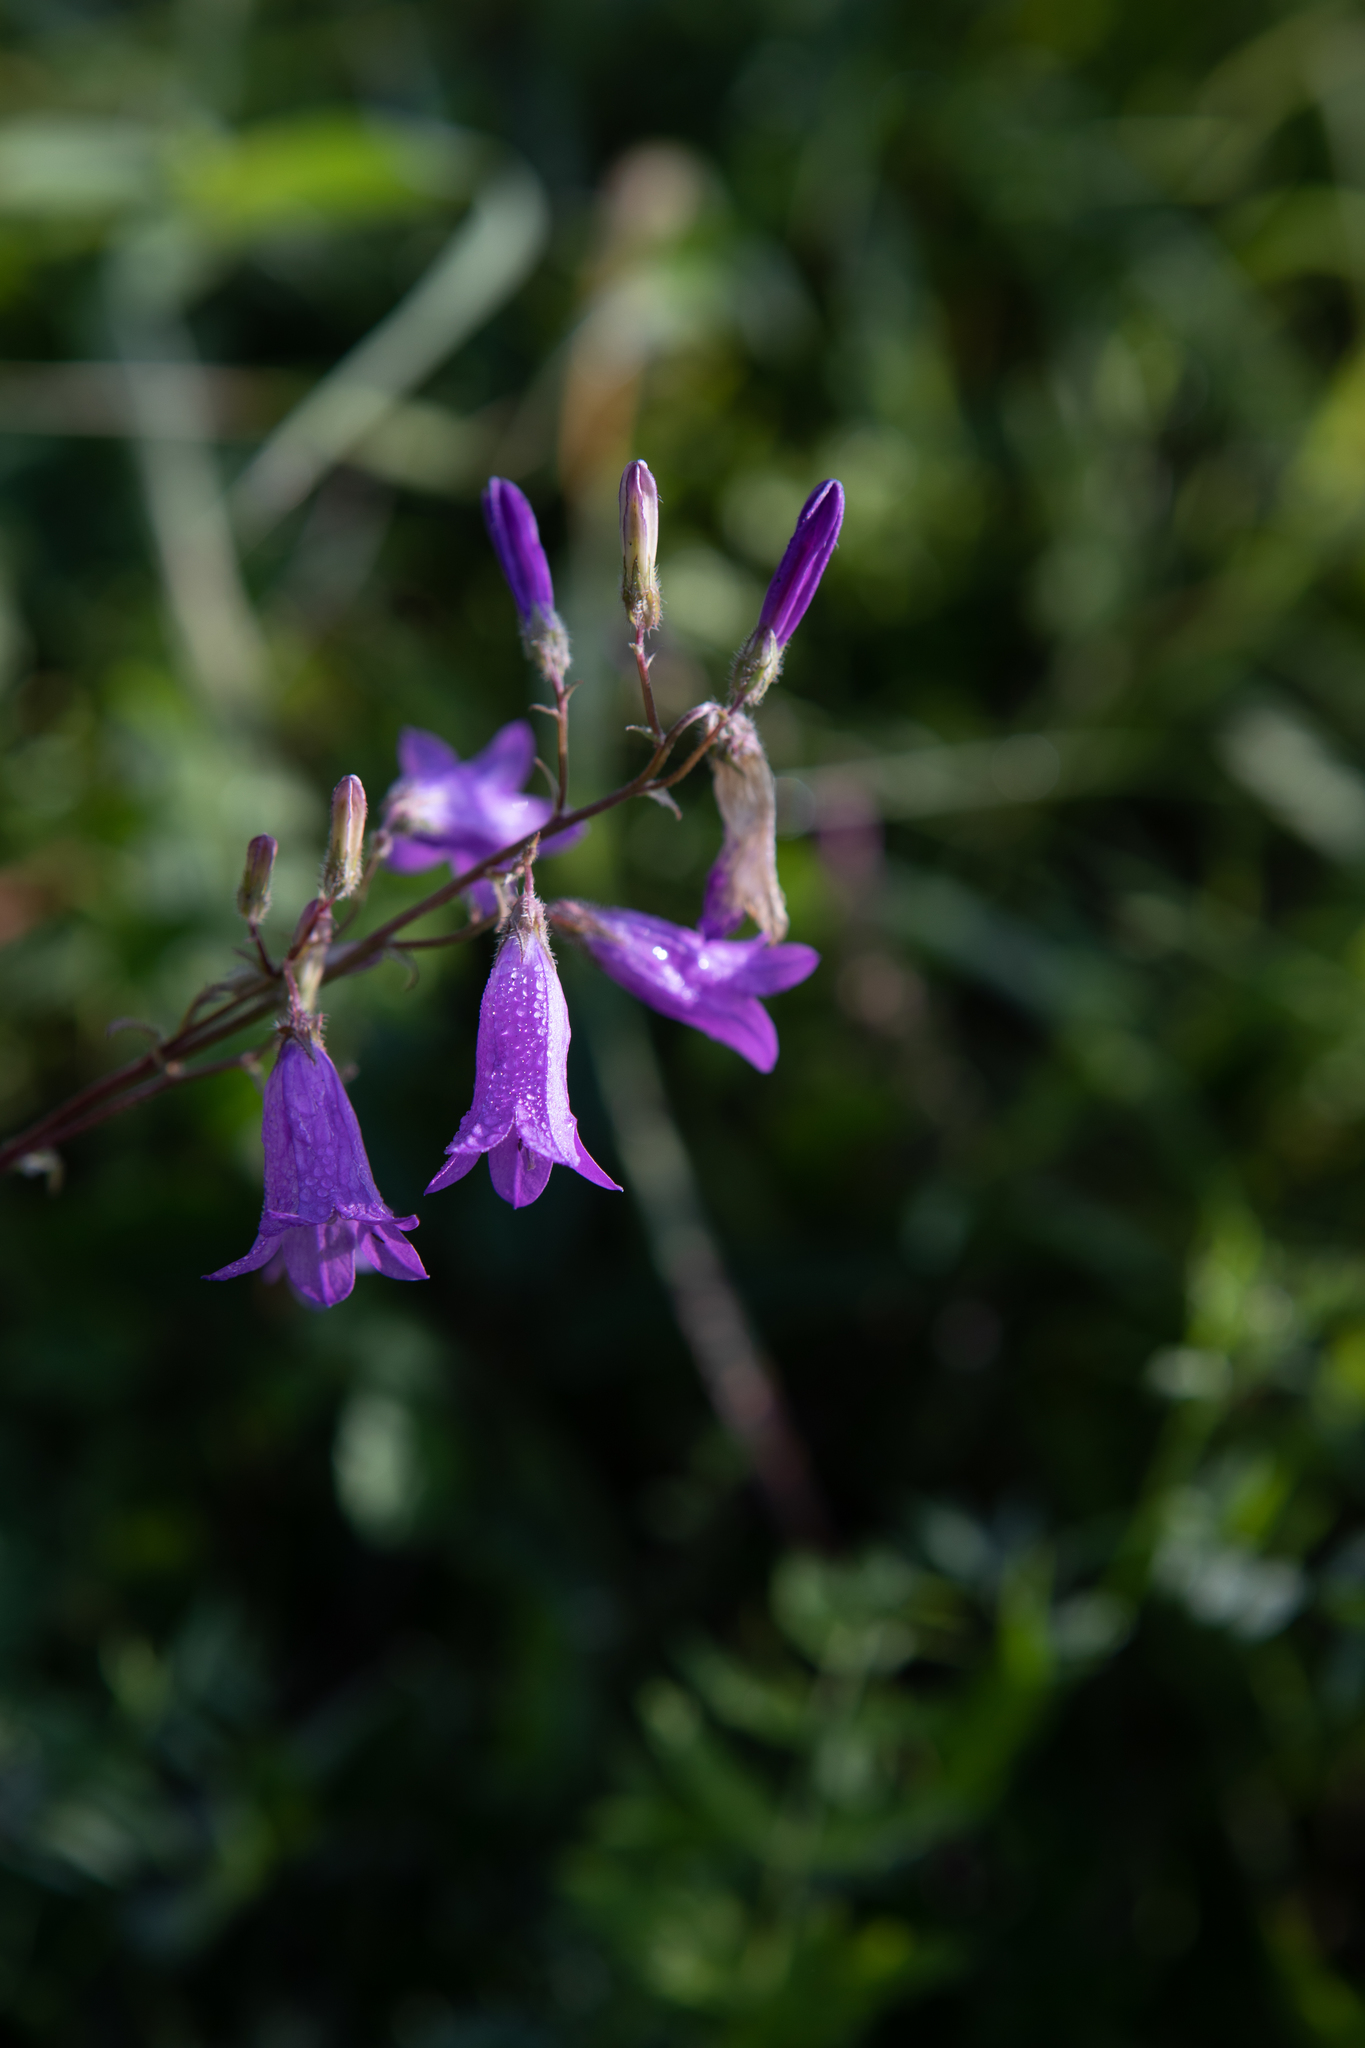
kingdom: Plantae
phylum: Tracheophyta
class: Magnoliopsida
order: Asterales
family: Campanulaceae
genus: Campanula
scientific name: Campanula sibirica
